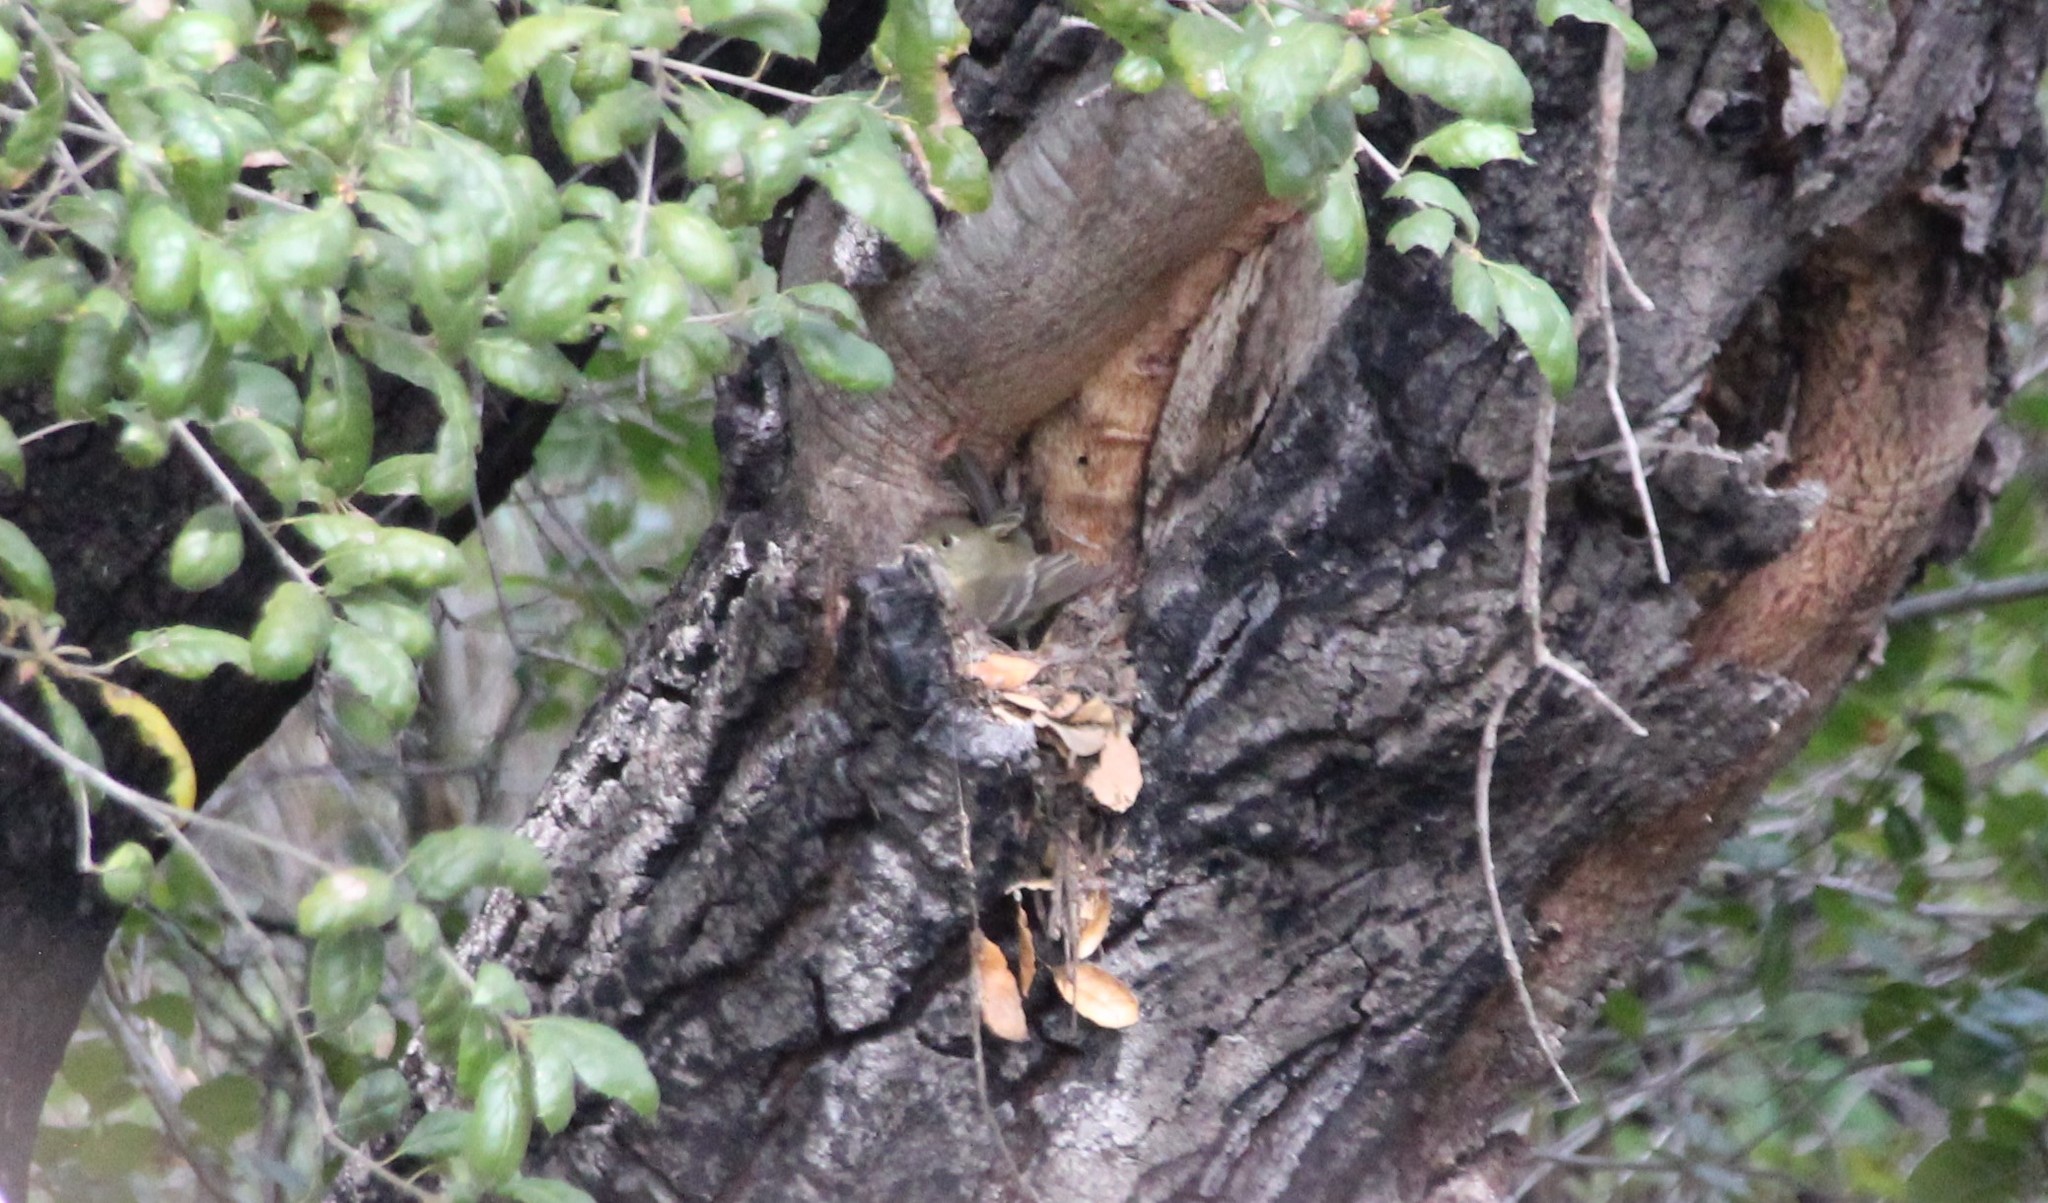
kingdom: Animalia
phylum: Chordata
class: Aves
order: Passeriformes
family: Tyrannidae
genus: Empidonax
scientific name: Empidonax difficilis
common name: Pacific-slope flycatcher
